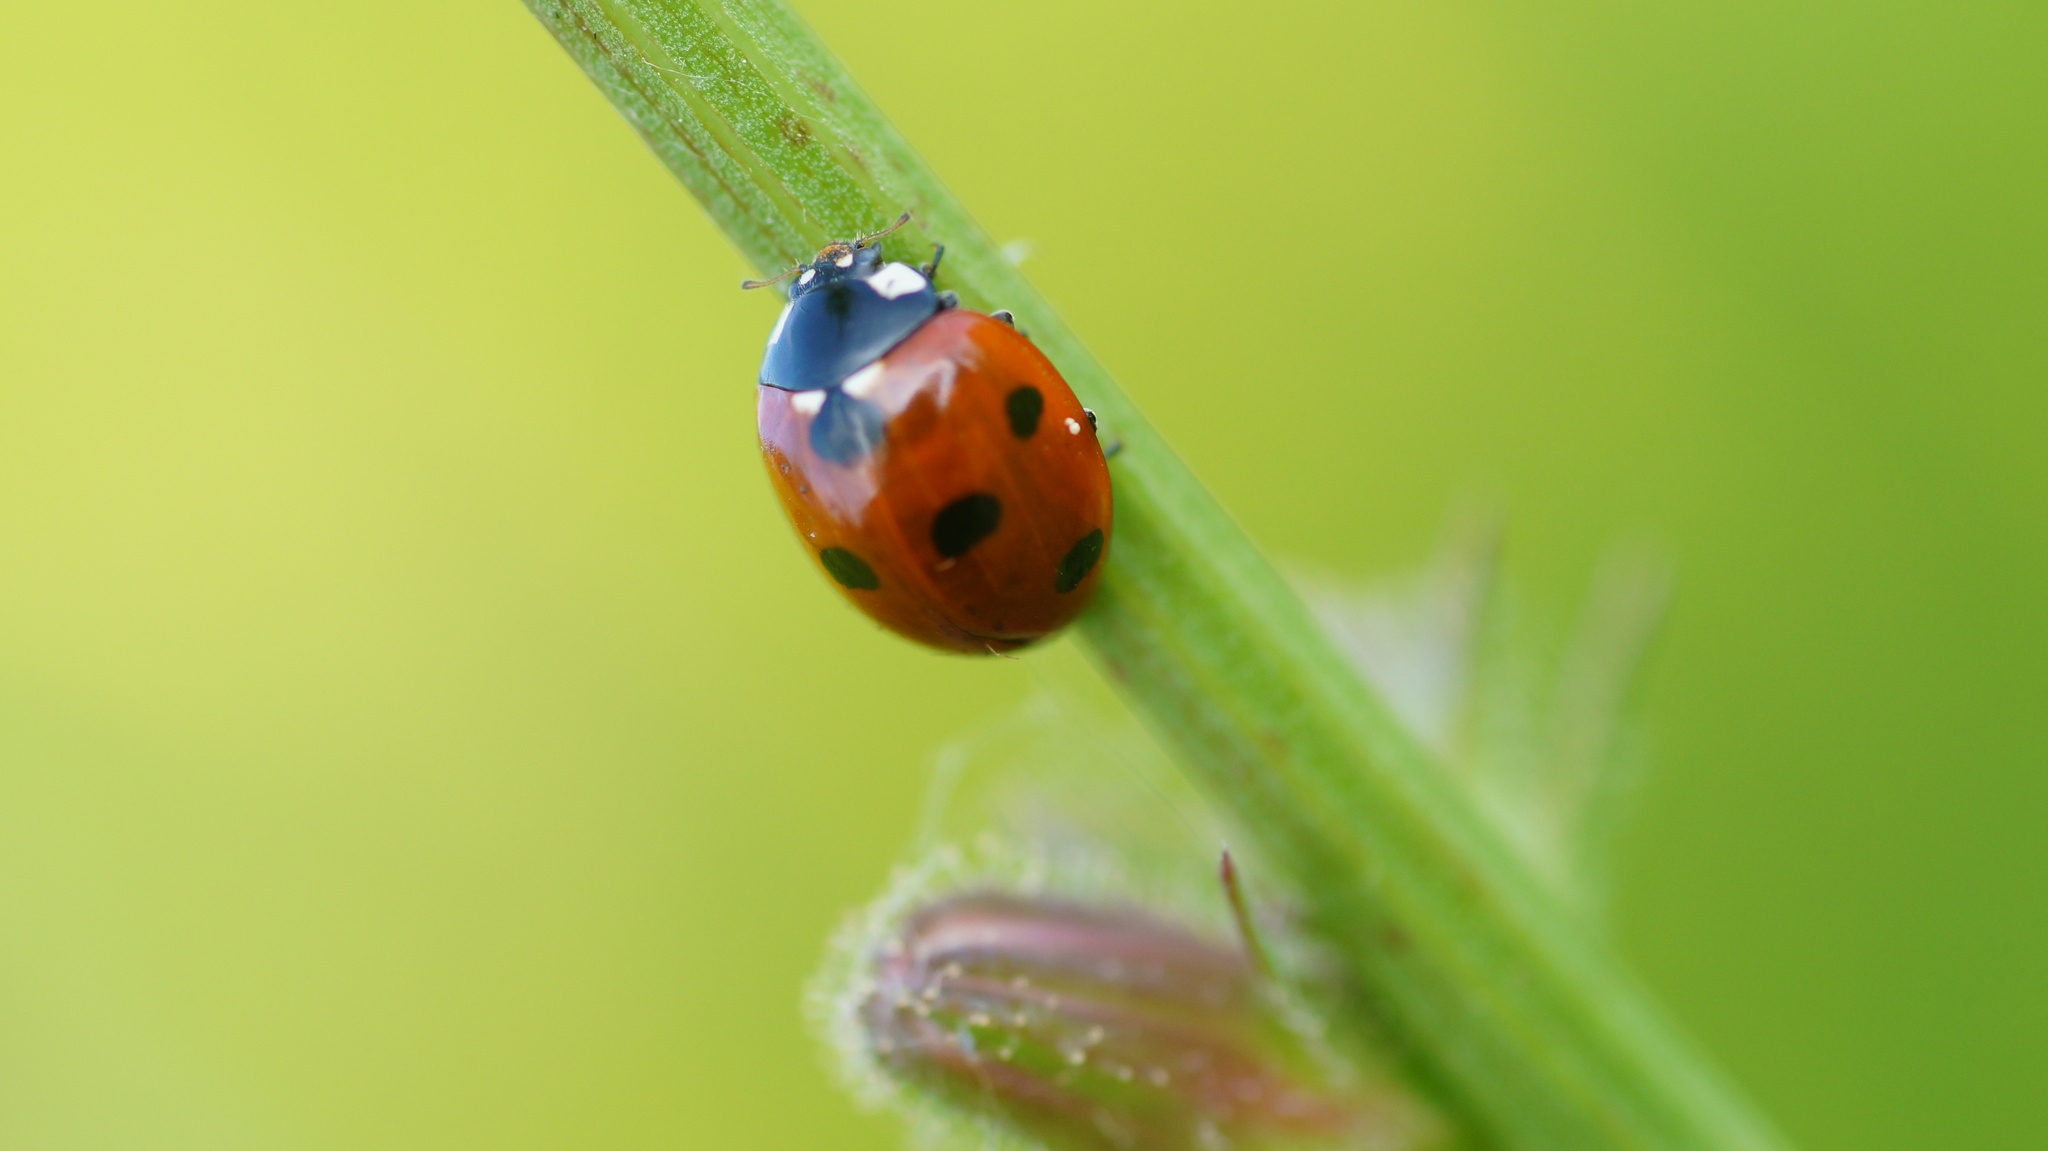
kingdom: Animalia
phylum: Arthropoda
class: Insecta
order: Coleoptera
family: Coccinellidae
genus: Coccinella
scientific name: Coccinella septempunctata
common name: Sevenspotted lady beetle
